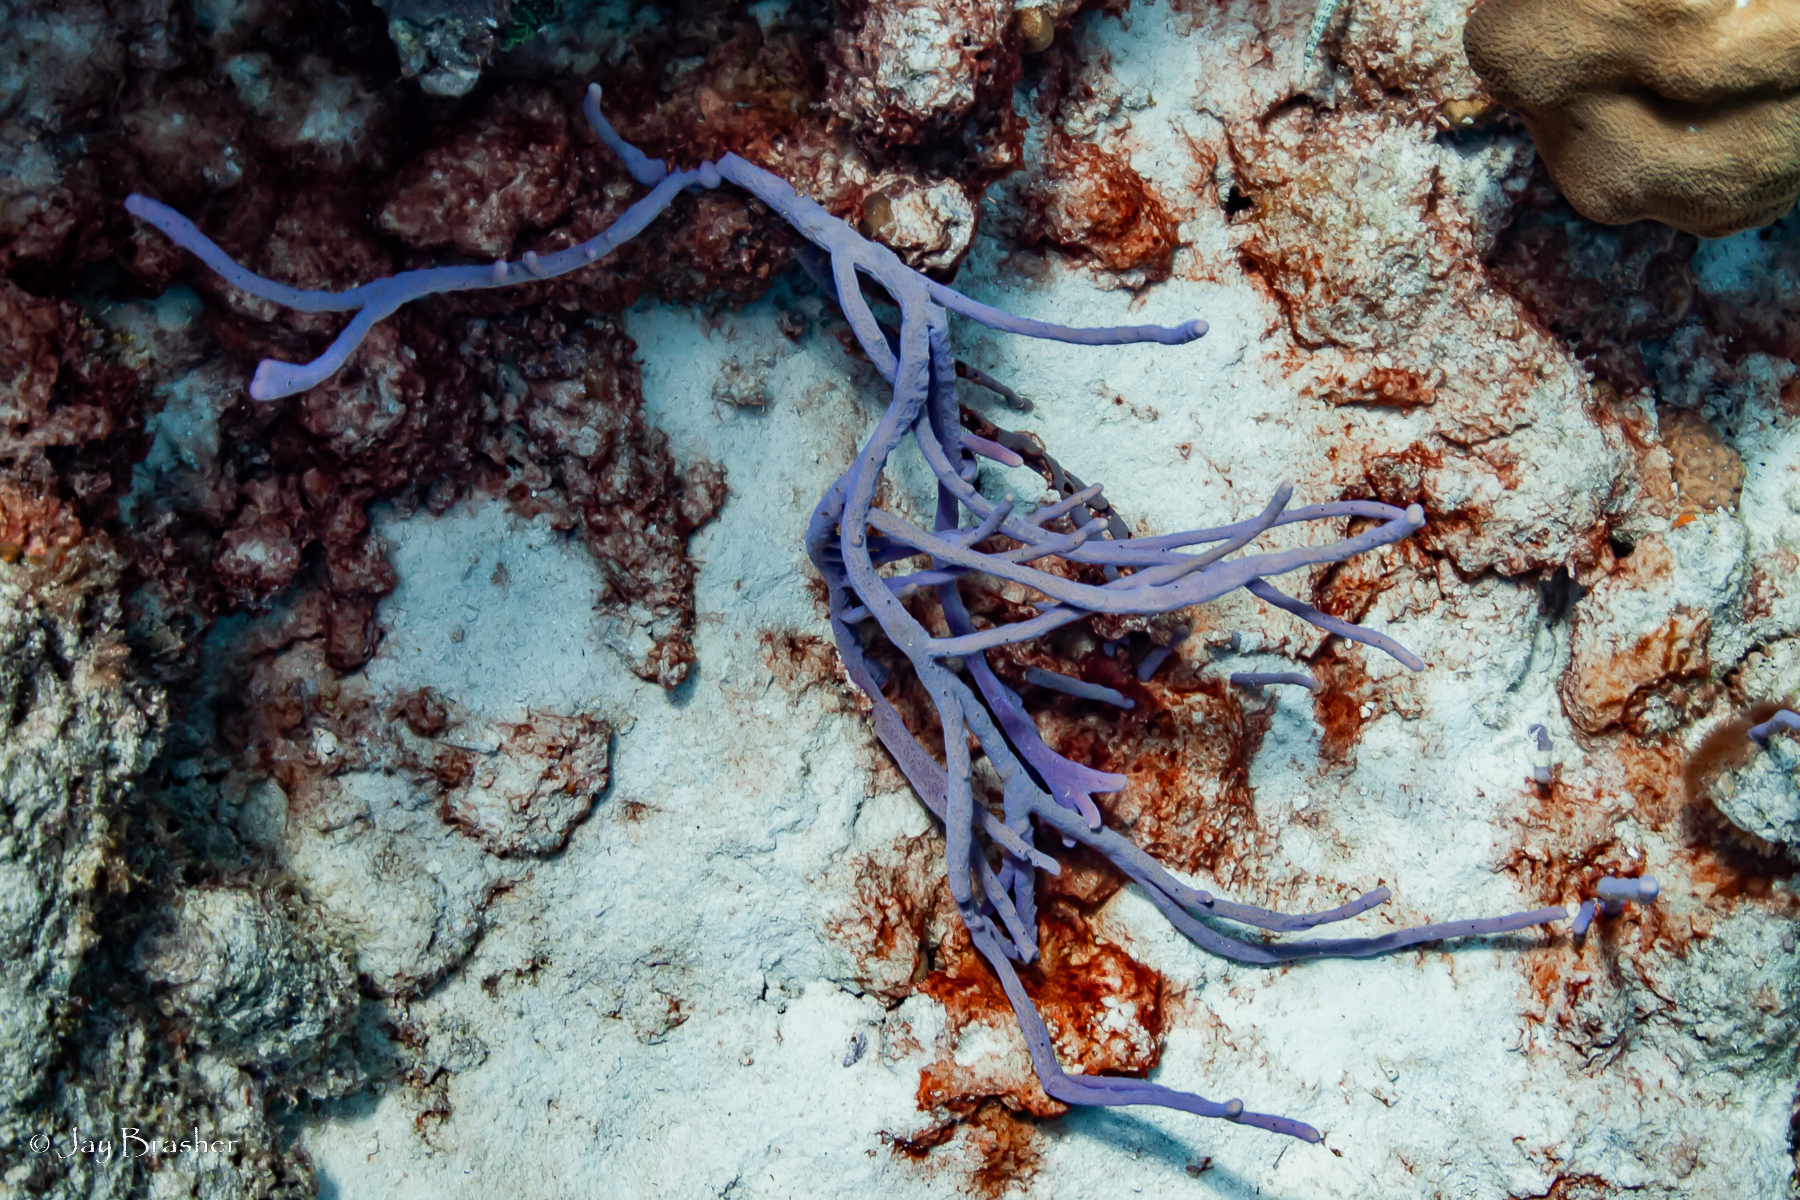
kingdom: Animalia
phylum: Porifera
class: Demospongiae
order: Verongiida
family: Aplysinidae
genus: Aplysina
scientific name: Aplysina cauliformis
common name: Branching candle sponge
